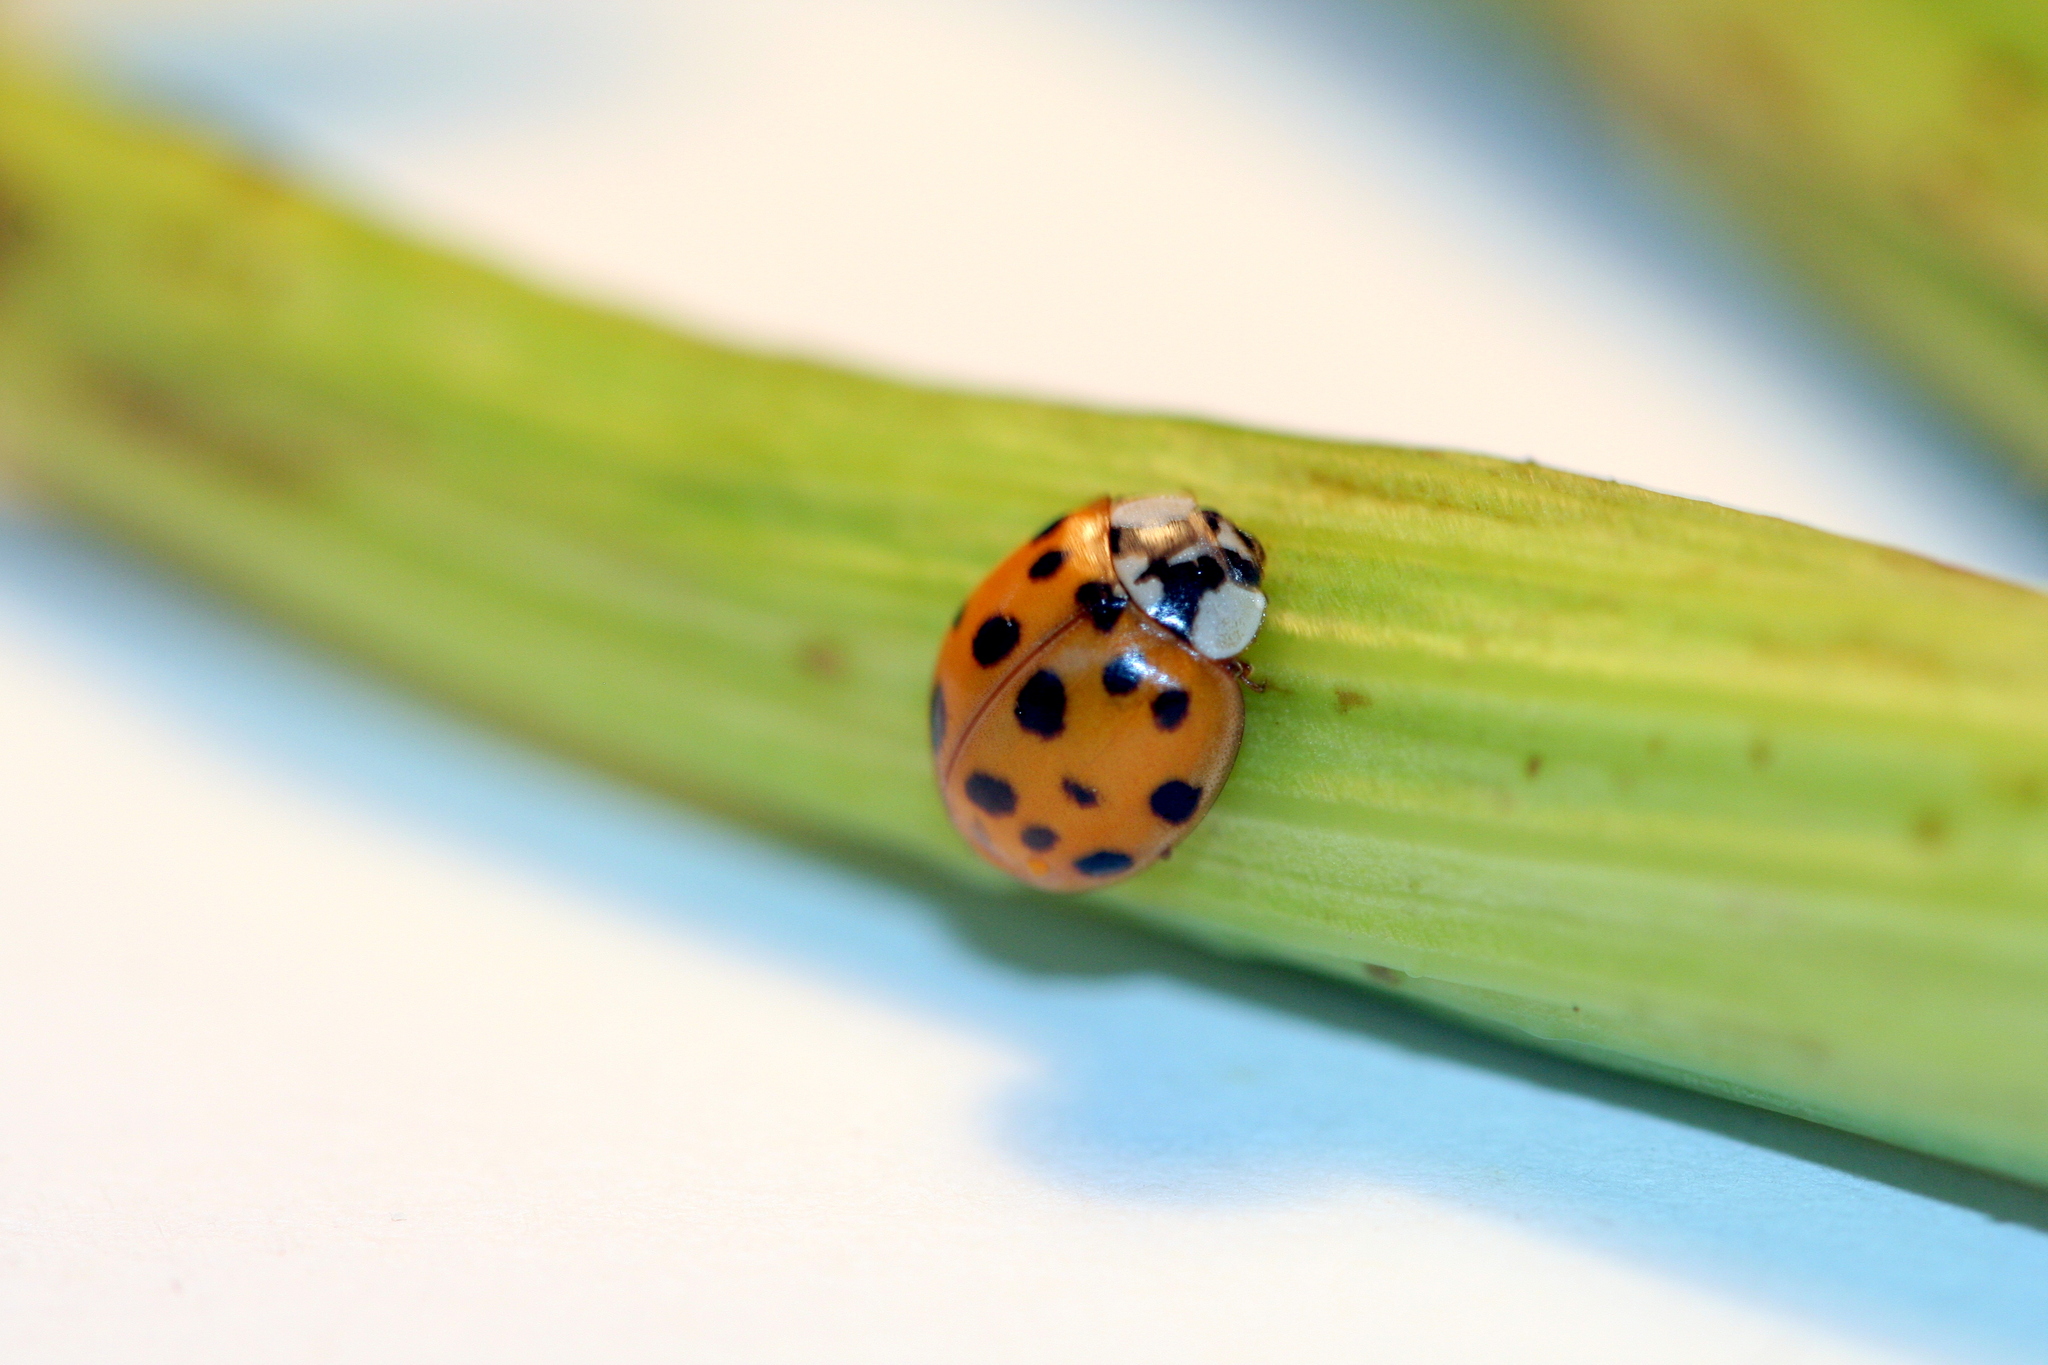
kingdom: Animalia
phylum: Arthropoda
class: Insecta
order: Coleoptera
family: Coccinellidae
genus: Harmonia
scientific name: Harmonia axyridis
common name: Harlequin ladybird
